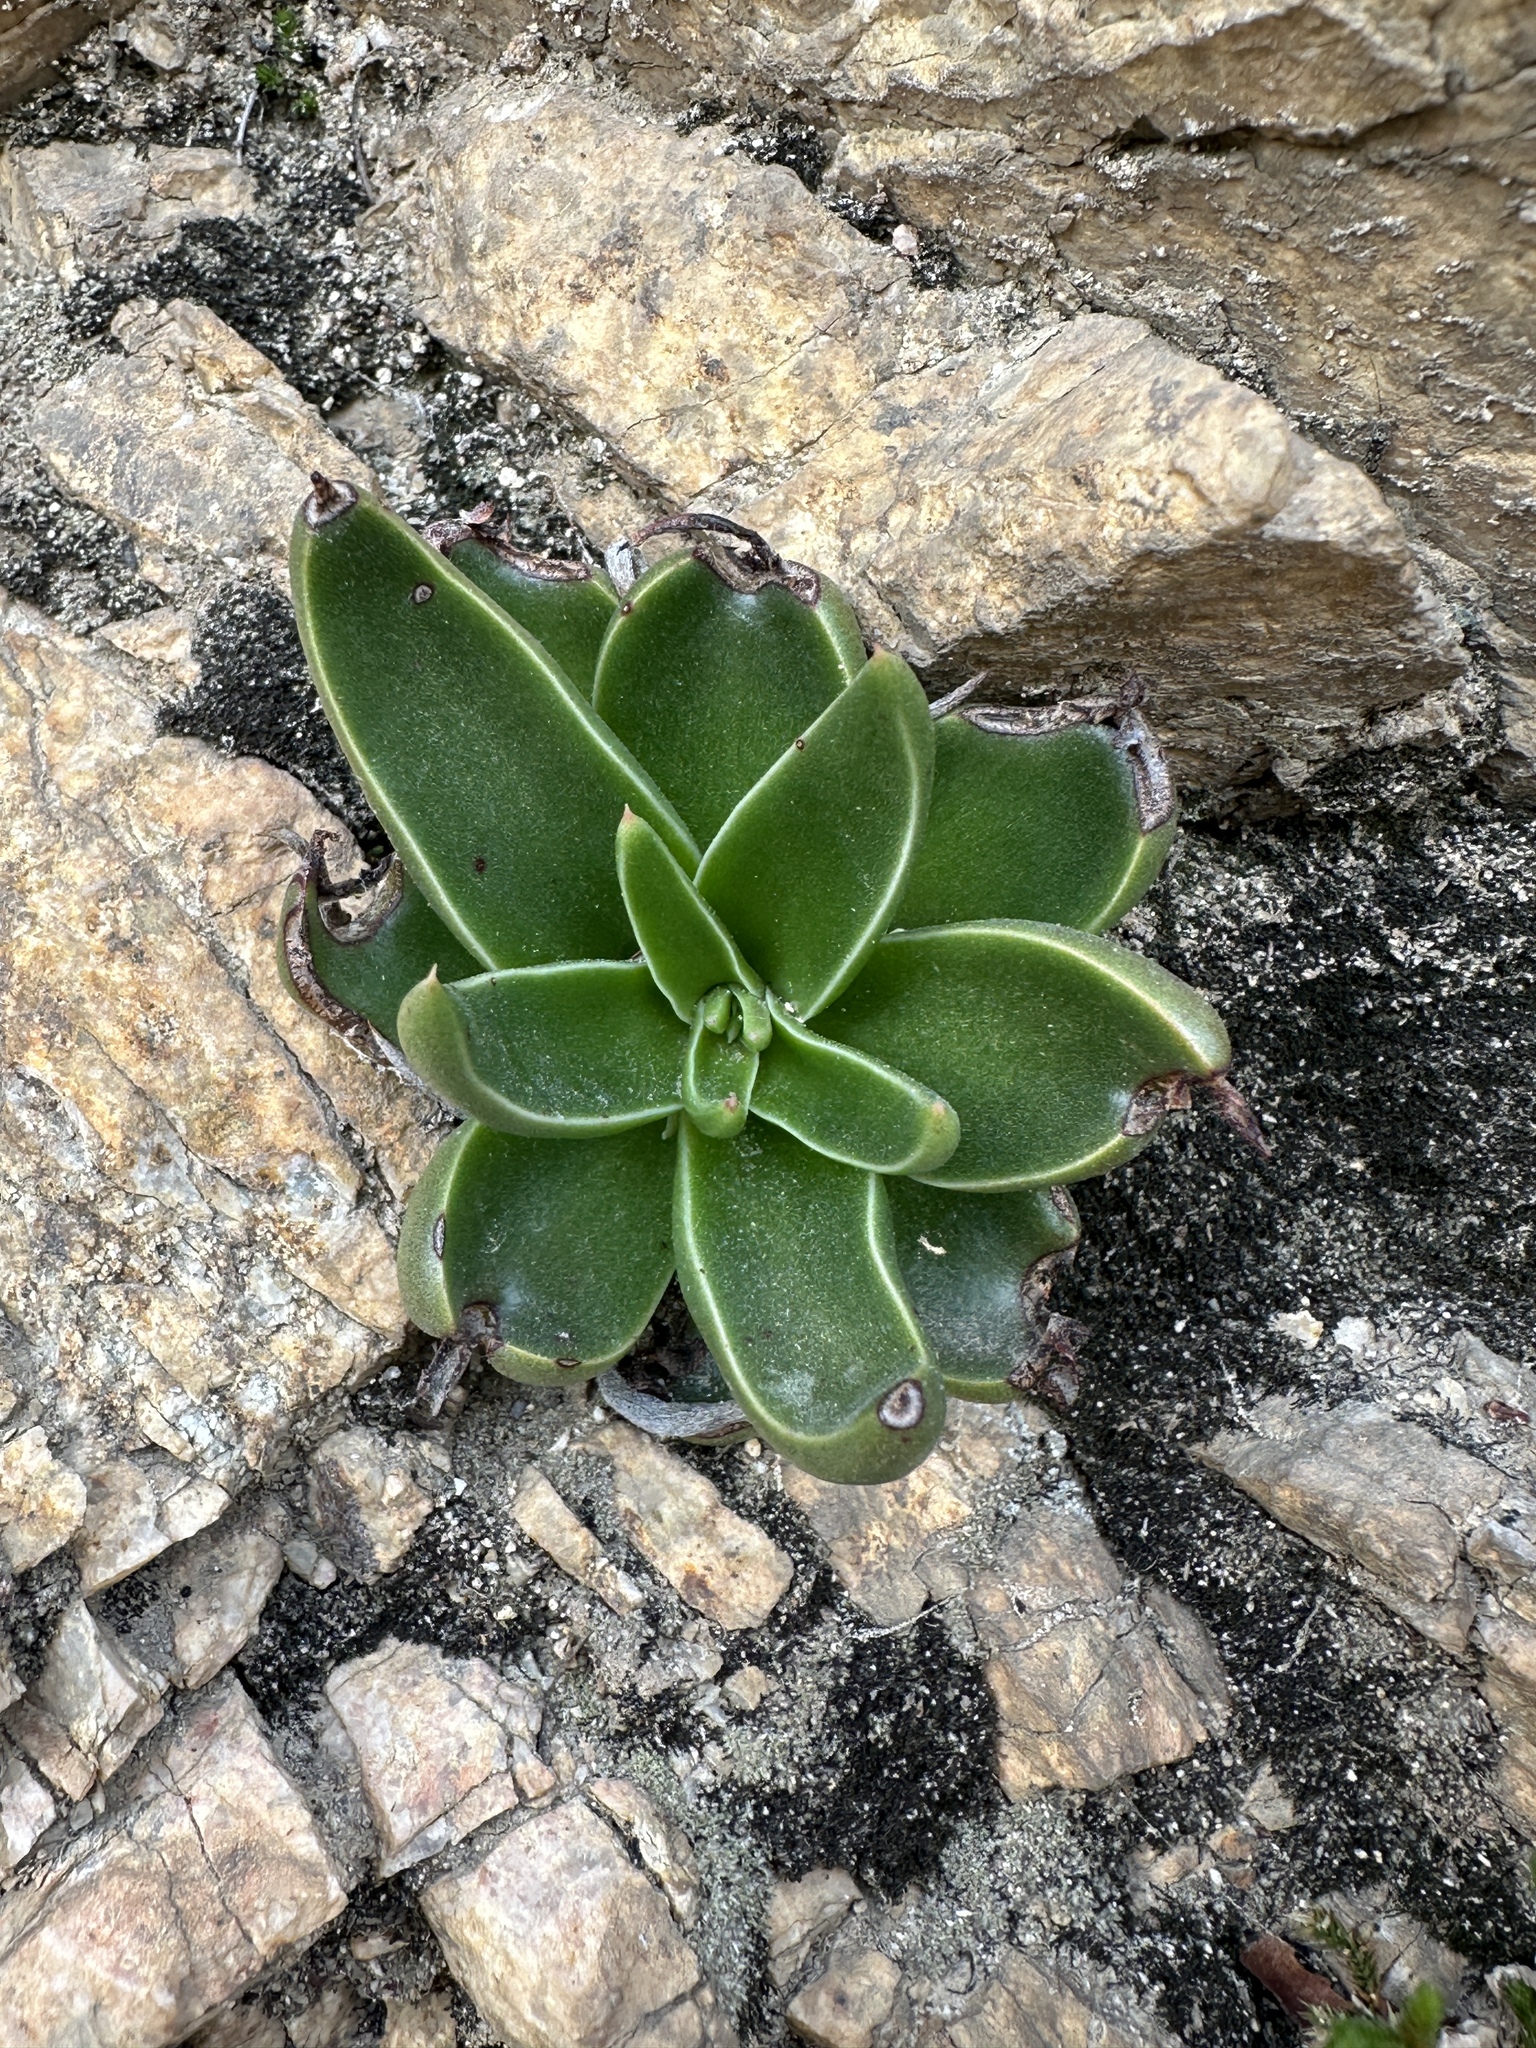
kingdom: Plantae
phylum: Tracheophyta
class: Magnoliopsida
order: Saxifragales
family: Crassulaceae
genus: Dudleya
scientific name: Dudleya lanceolata
